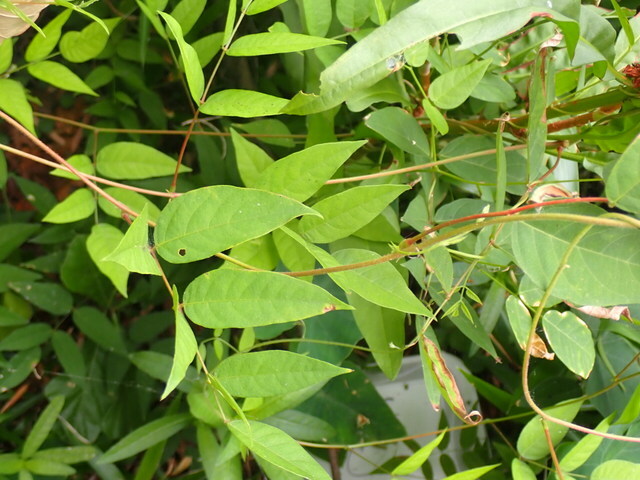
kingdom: Plantae
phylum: Tracheophyta
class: Magnoliopsida
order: Fabales
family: Fabaceae
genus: Apios
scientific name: Apios americana
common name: American potato-bean
